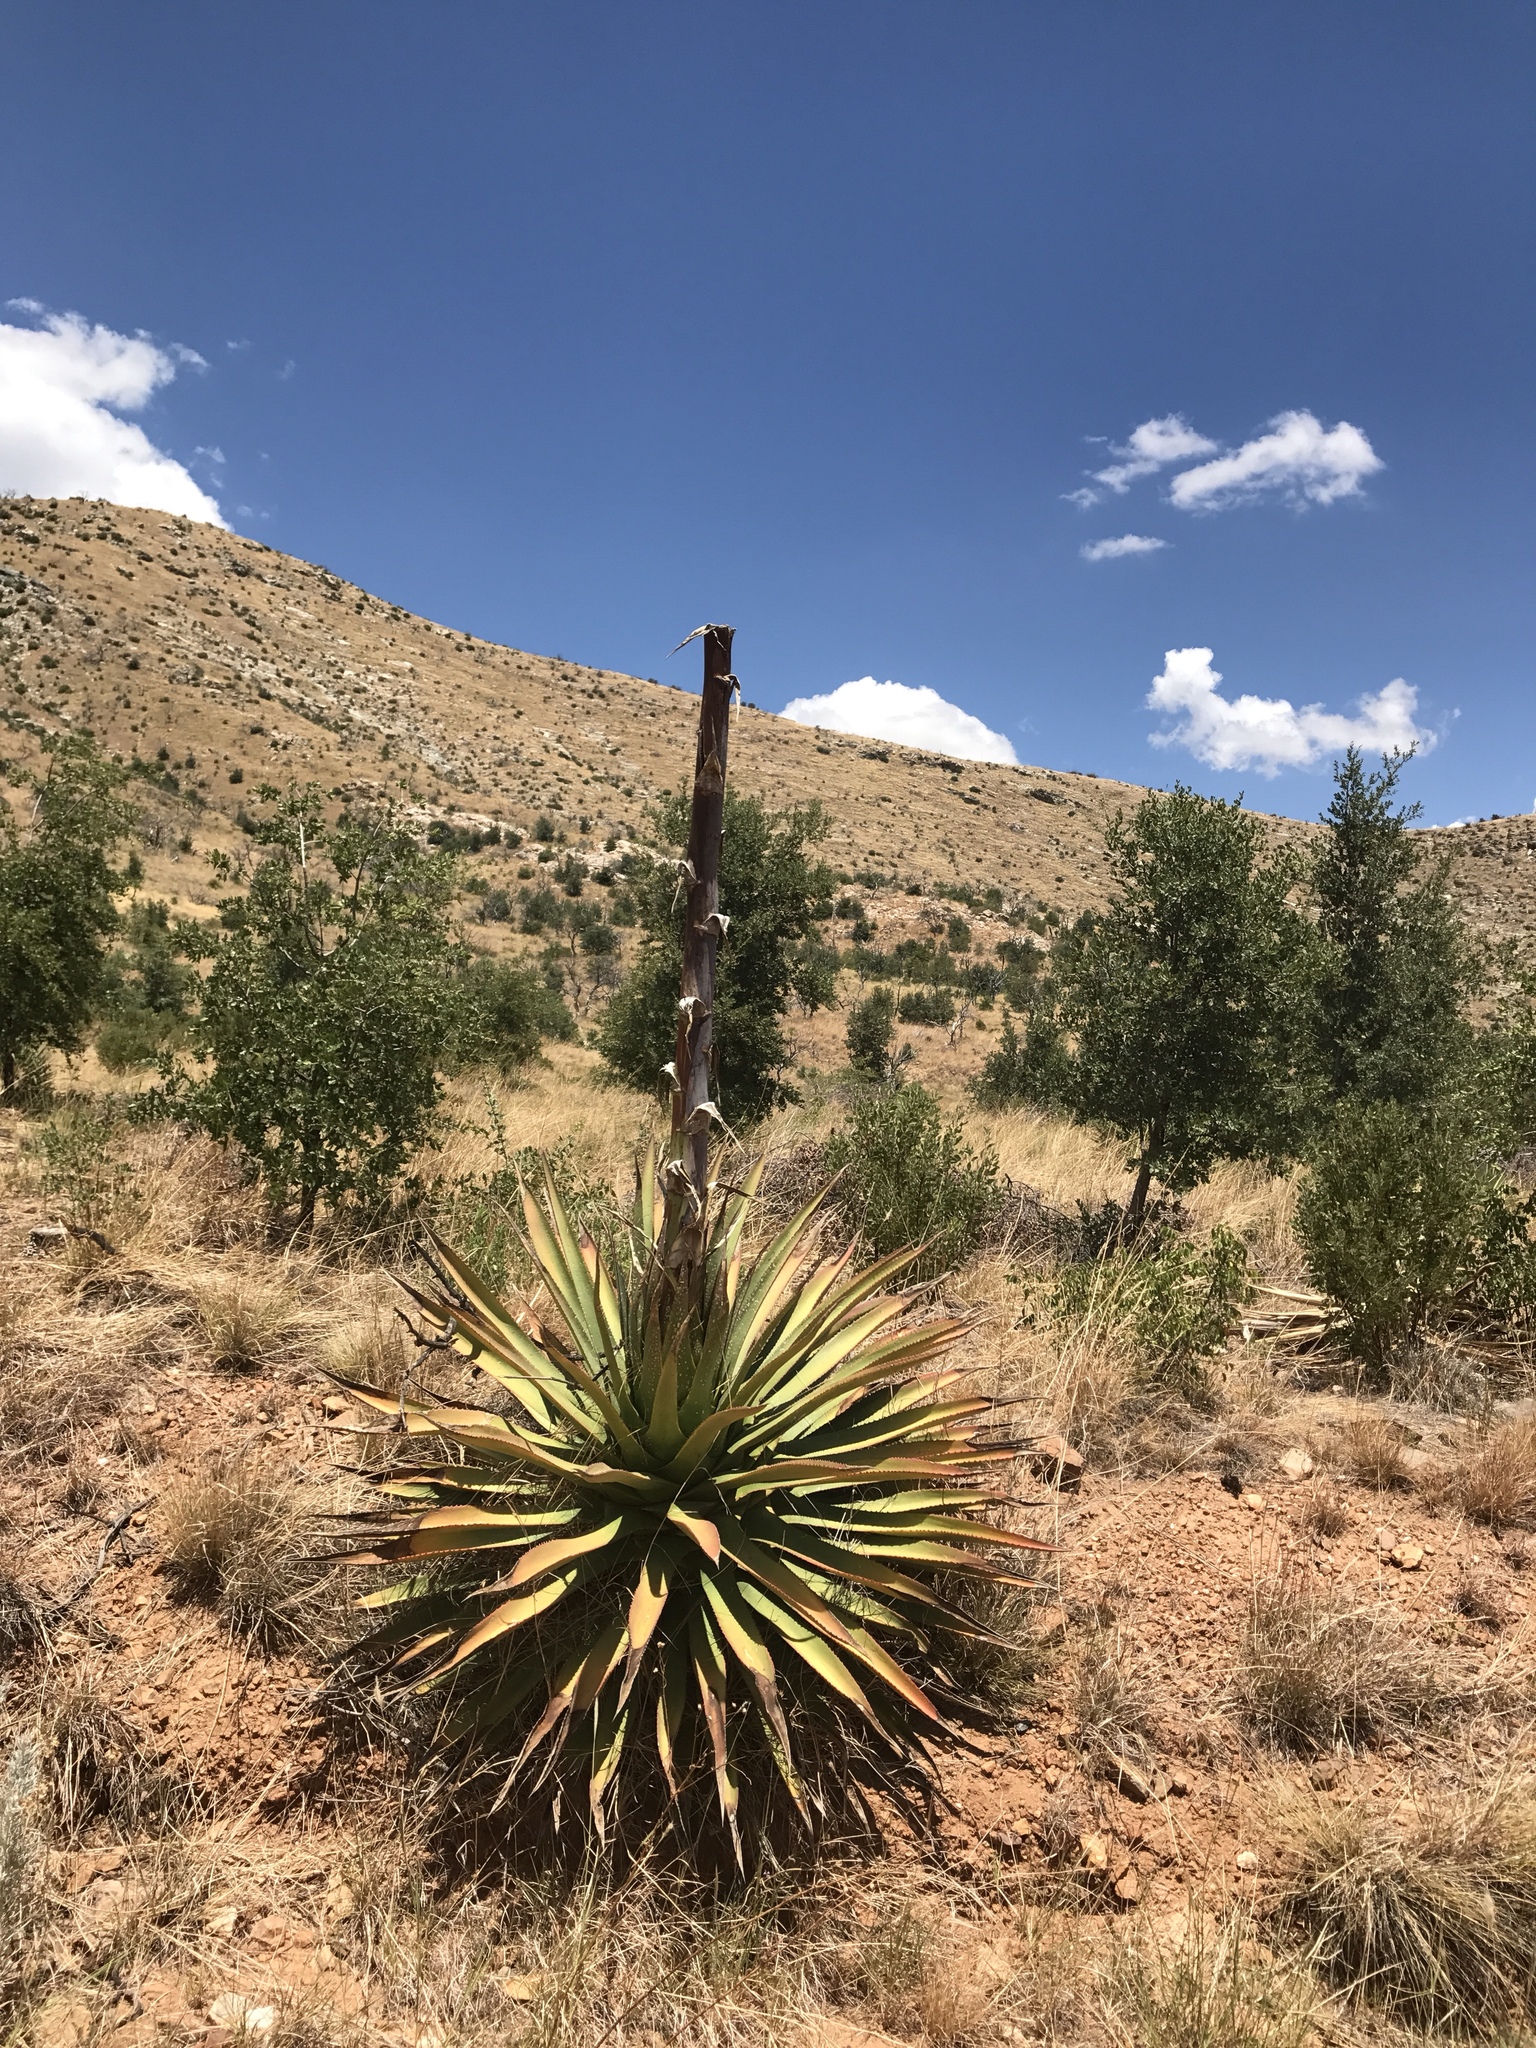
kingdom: Plantae
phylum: Tracheophyta
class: Liliopsida
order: Asparagales
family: Asparagaceae
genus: Agave
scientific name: Agave palmeri
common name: Palmer agave
